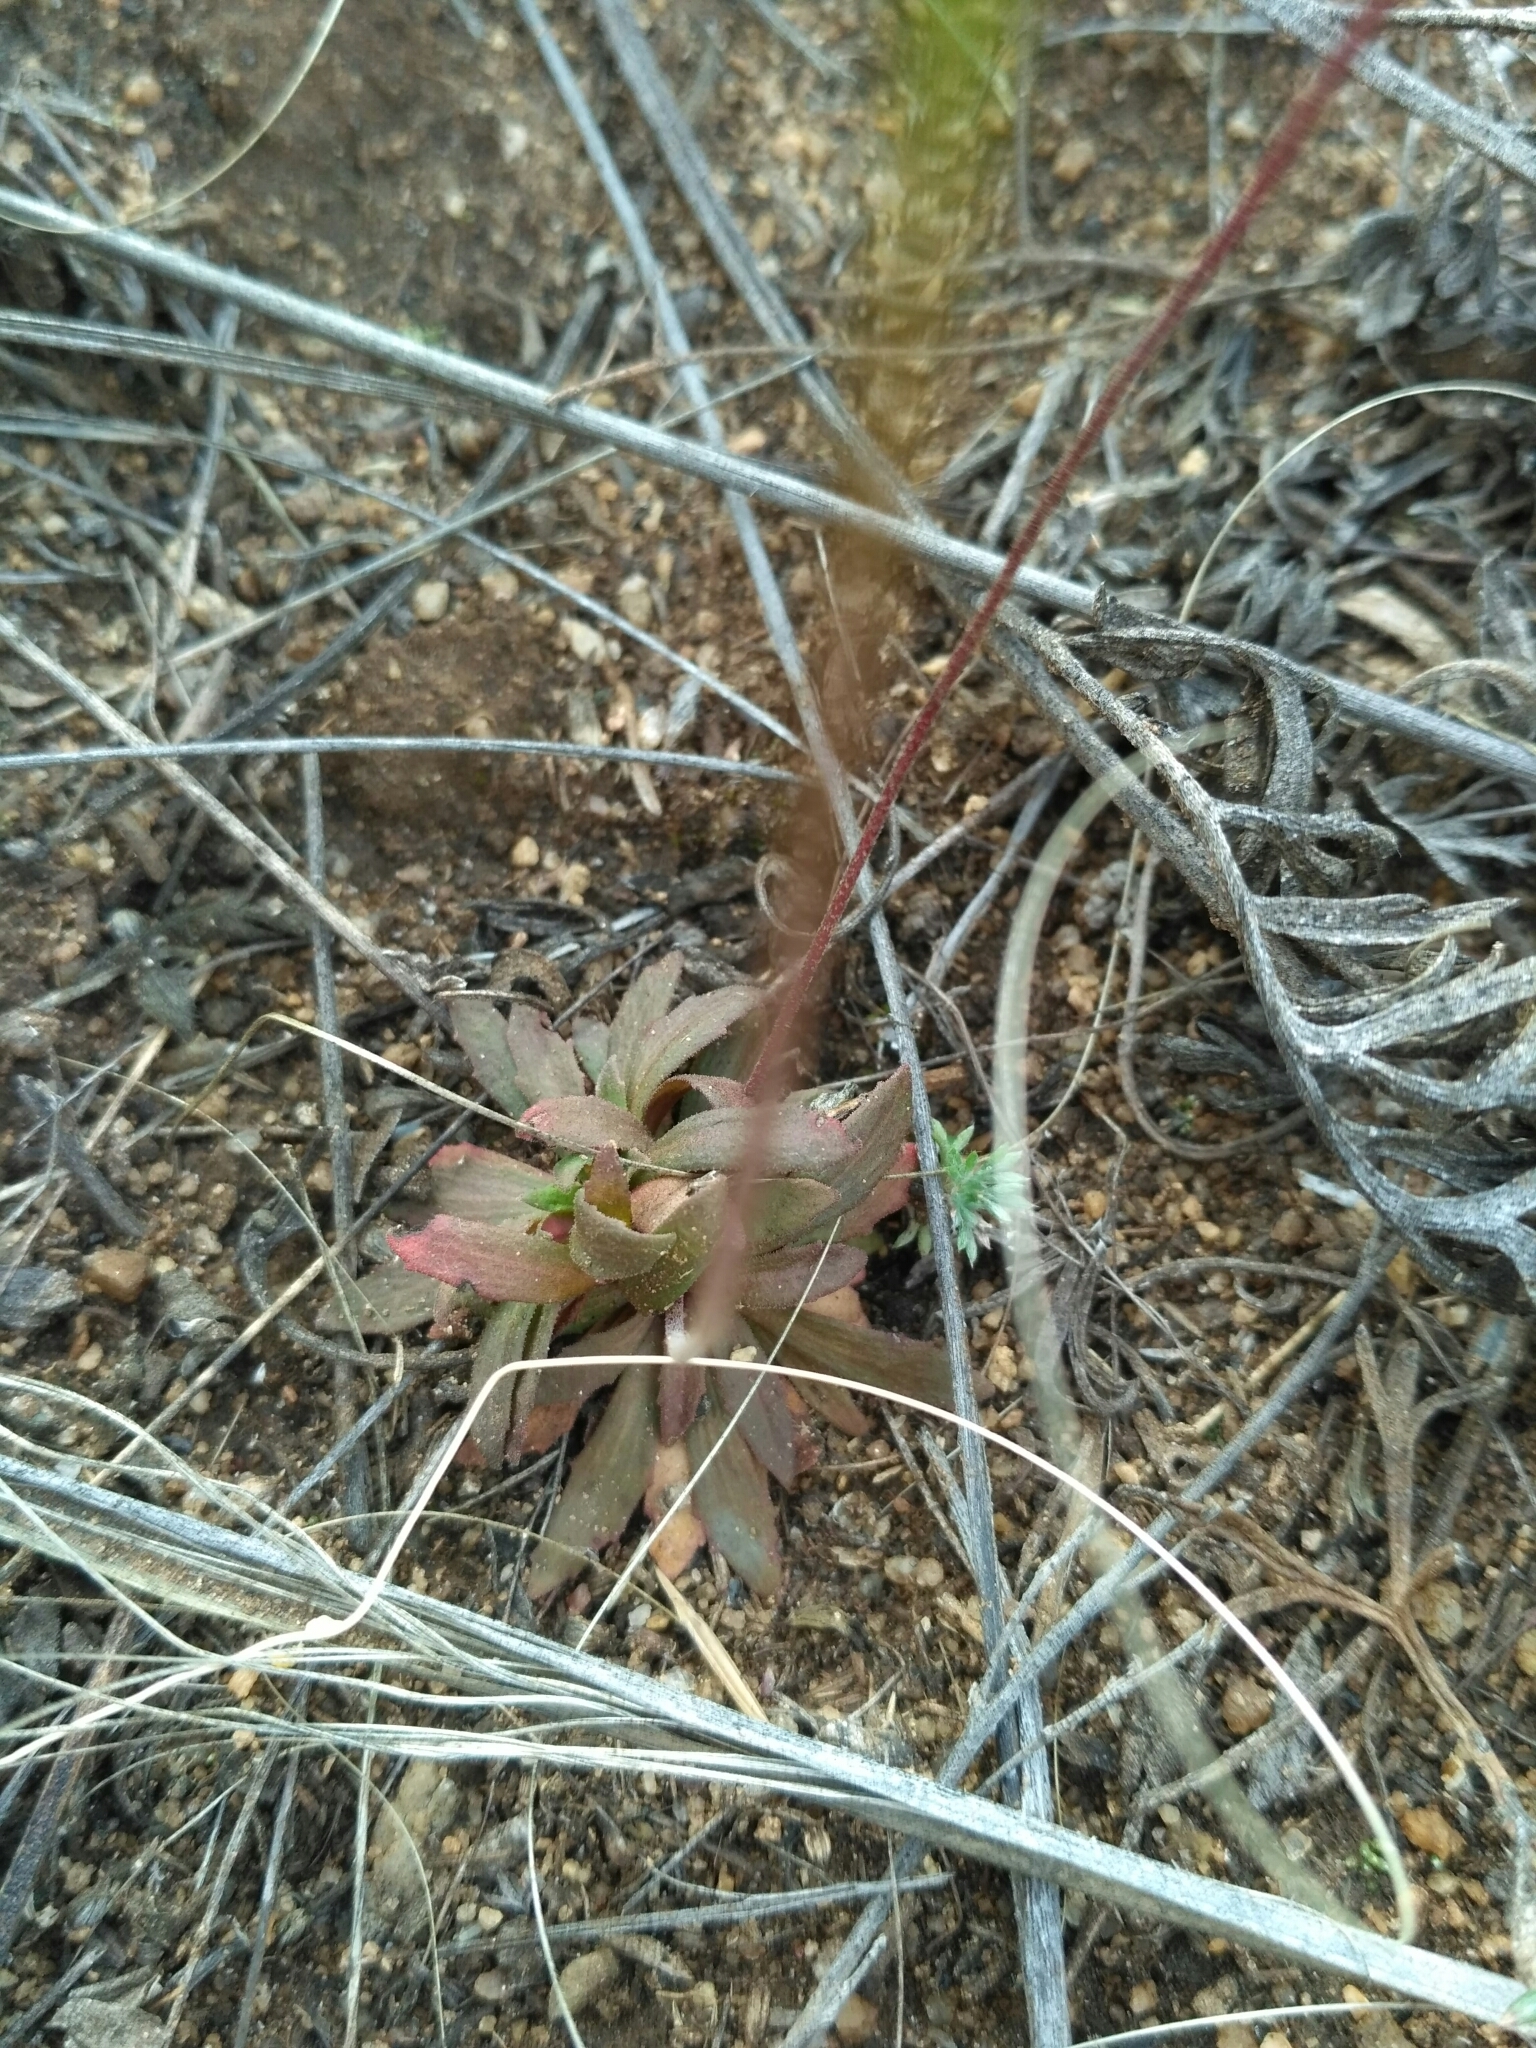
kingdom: Plantae
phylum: Tracheophyta
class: Magnoliopsida
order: Ericales
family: Primulaceae
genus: Androsace
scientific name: Androsace lactiflora
